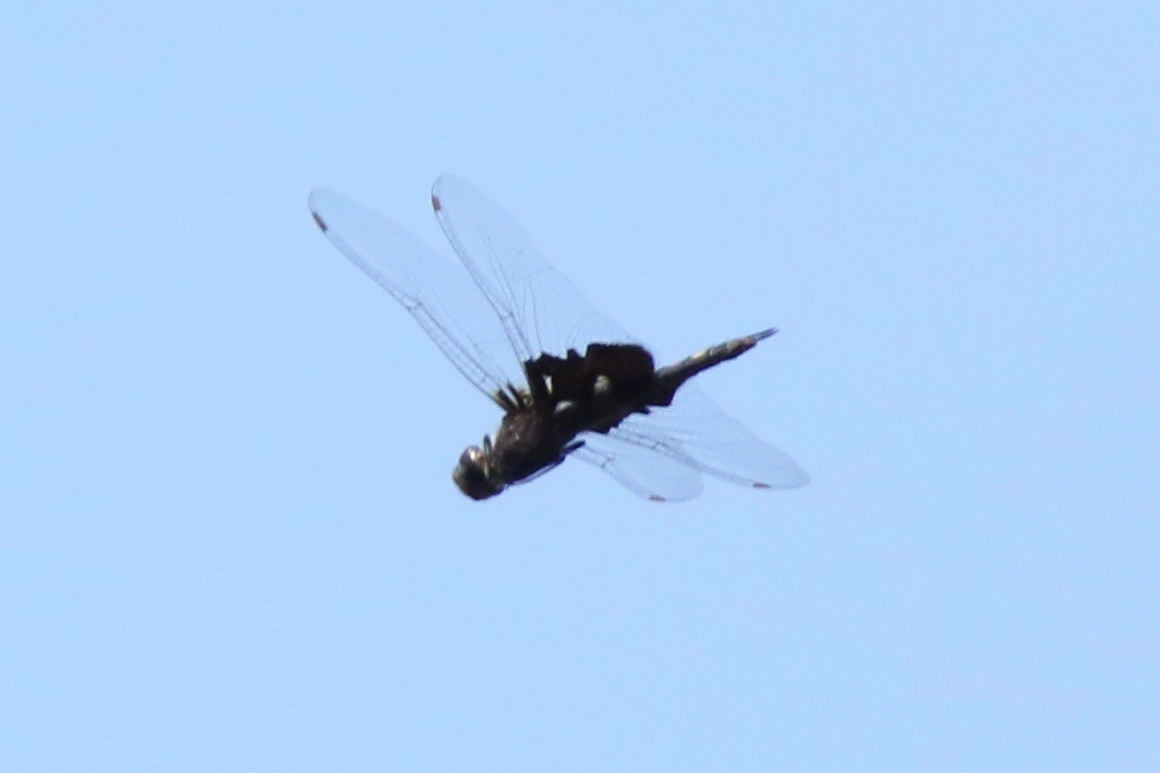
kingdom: Animalia
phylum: Arthropoda
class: Insecta
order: Odonata
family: Libellulidae
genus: Tramea
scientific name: Tramea lacerata
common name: Black saddlebags
